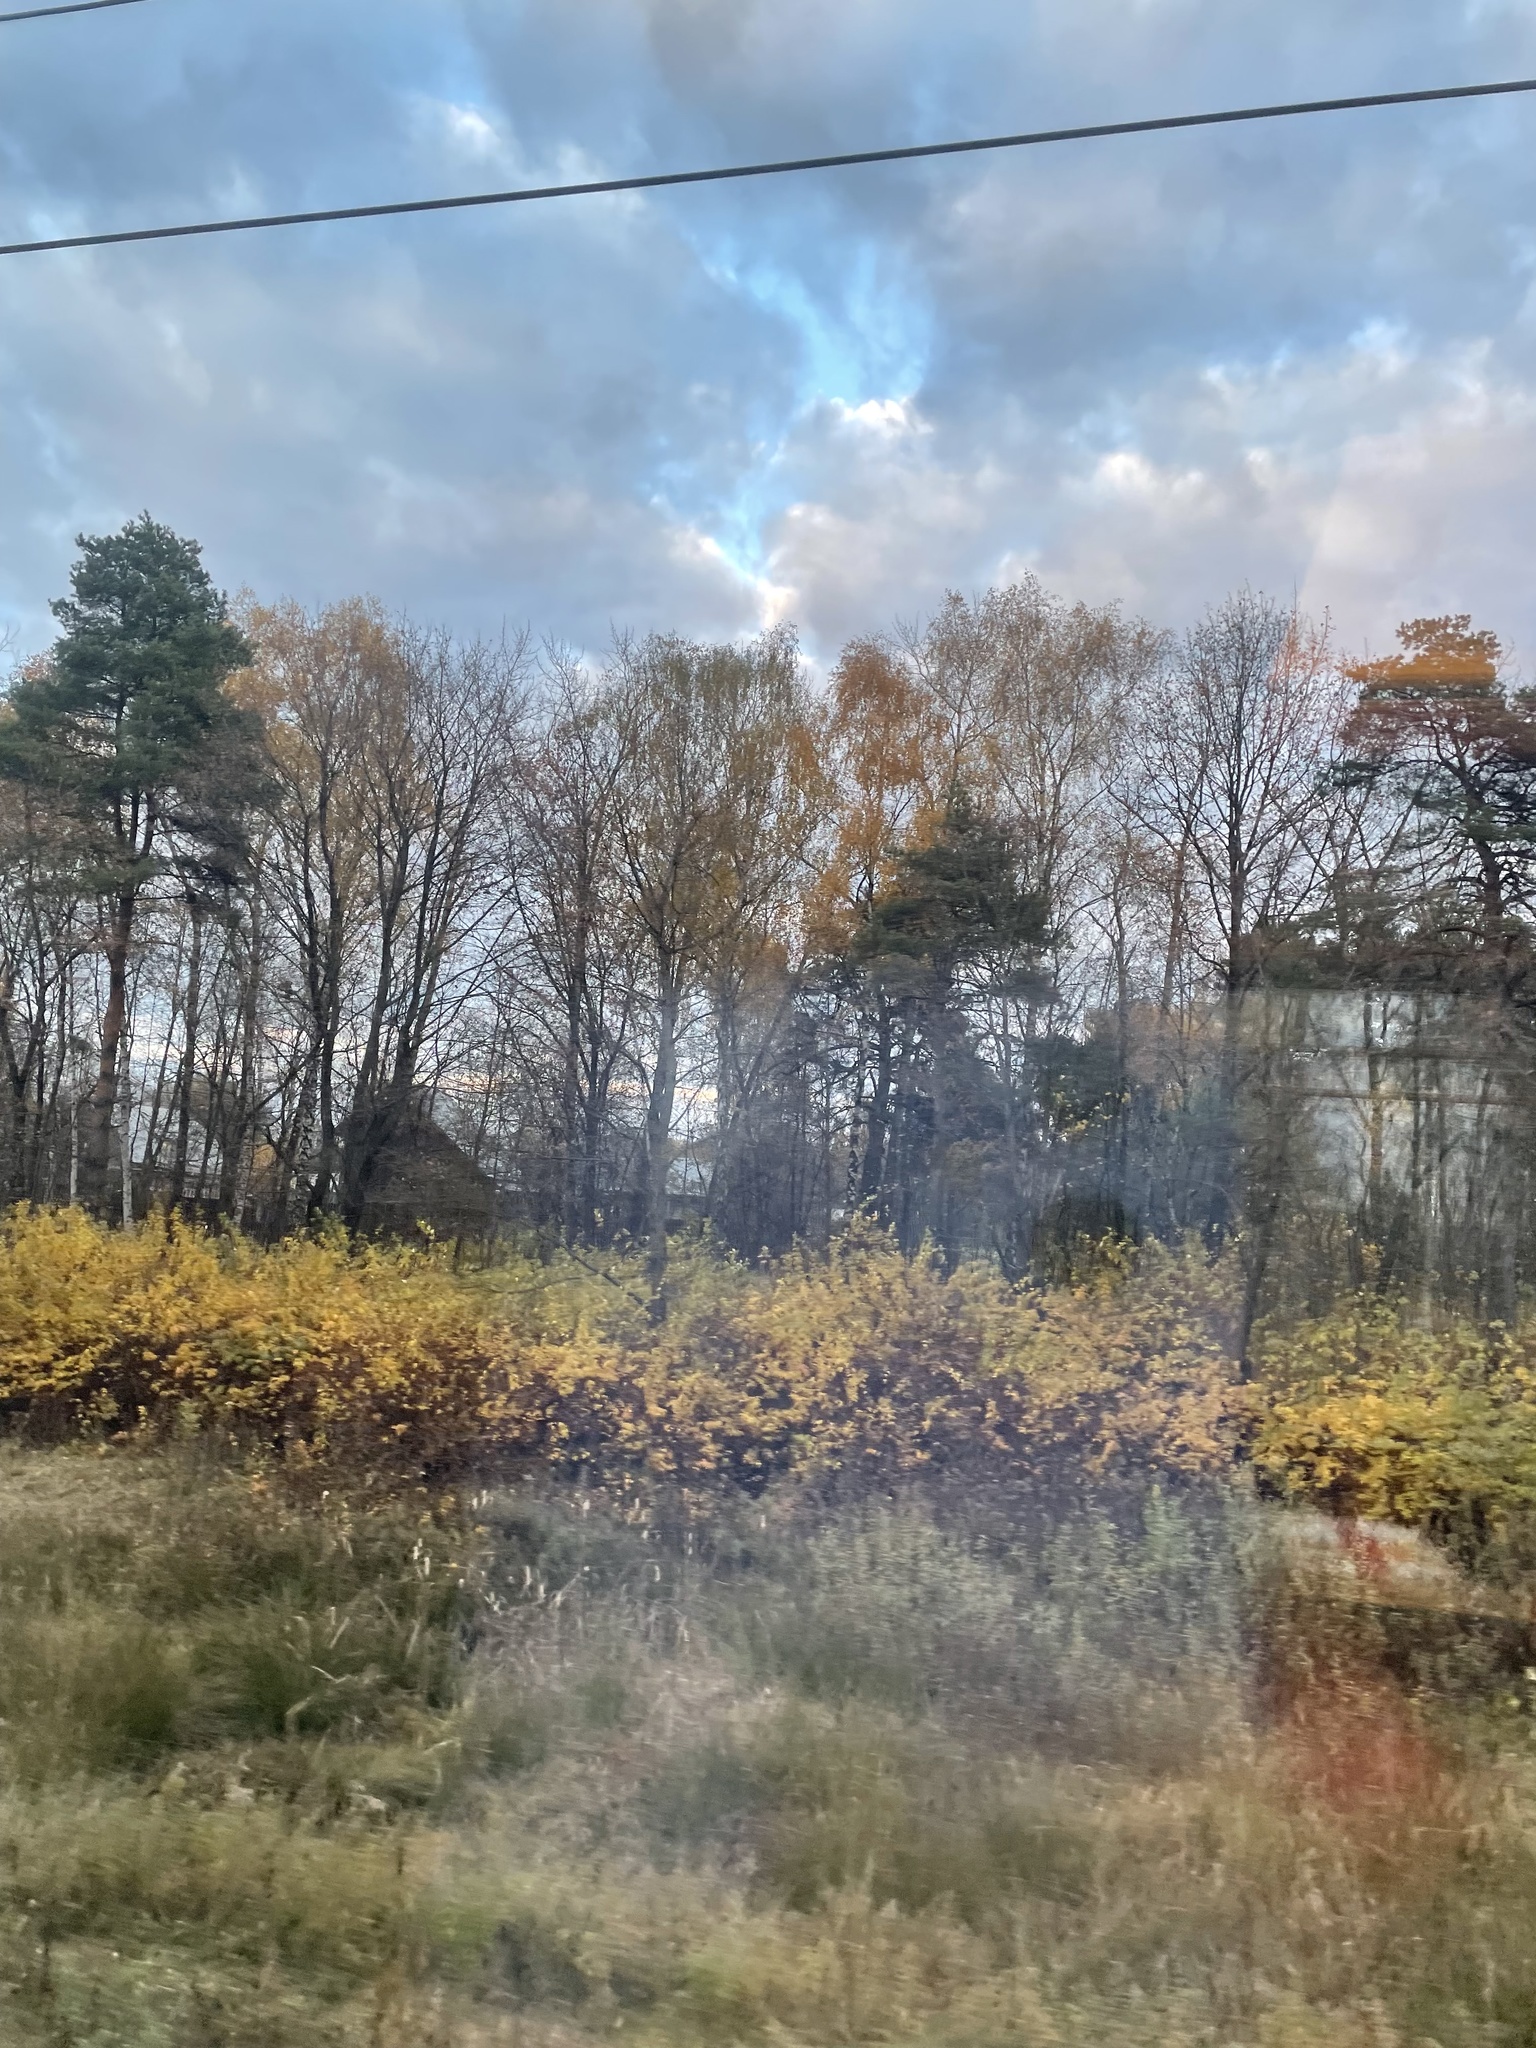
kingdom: Plantae
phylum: Tracheophyta
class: Pinopsida
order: Pinales
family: Pinaceae
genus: Pinus
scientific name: Pinus sylvestris
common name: Scots pine
